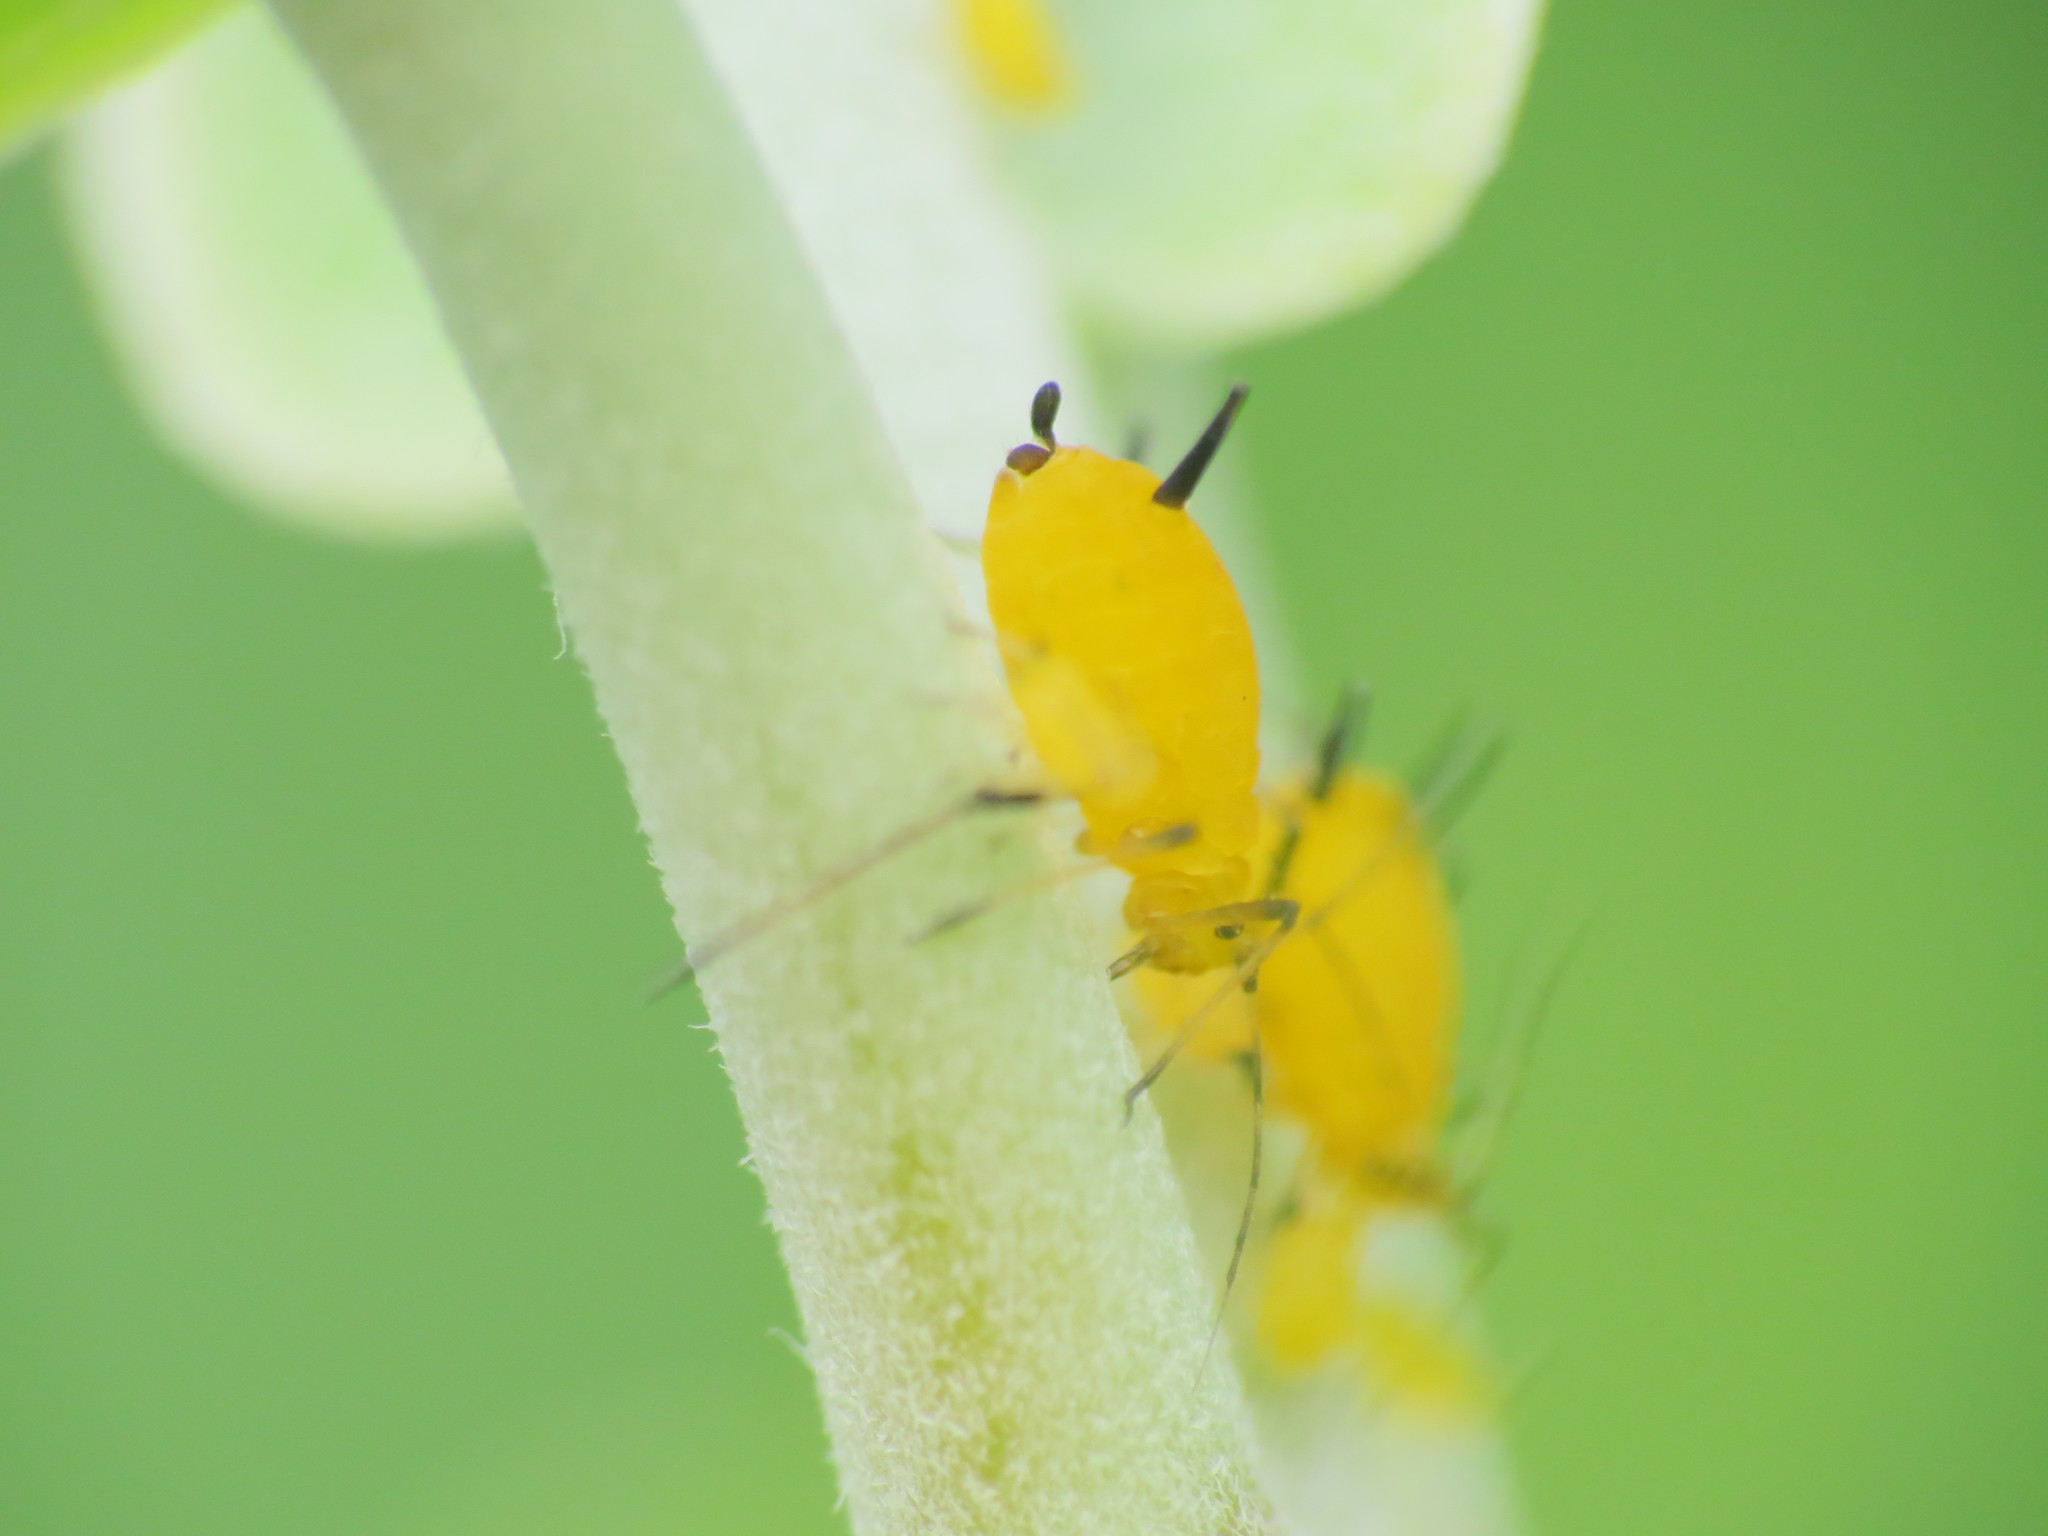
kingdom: Animalia
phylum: Arthropoda
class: Insecta
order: Hemiptera
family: Aphididae
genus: Aphis
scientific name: Aphis nerii
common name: Oleander aphid
